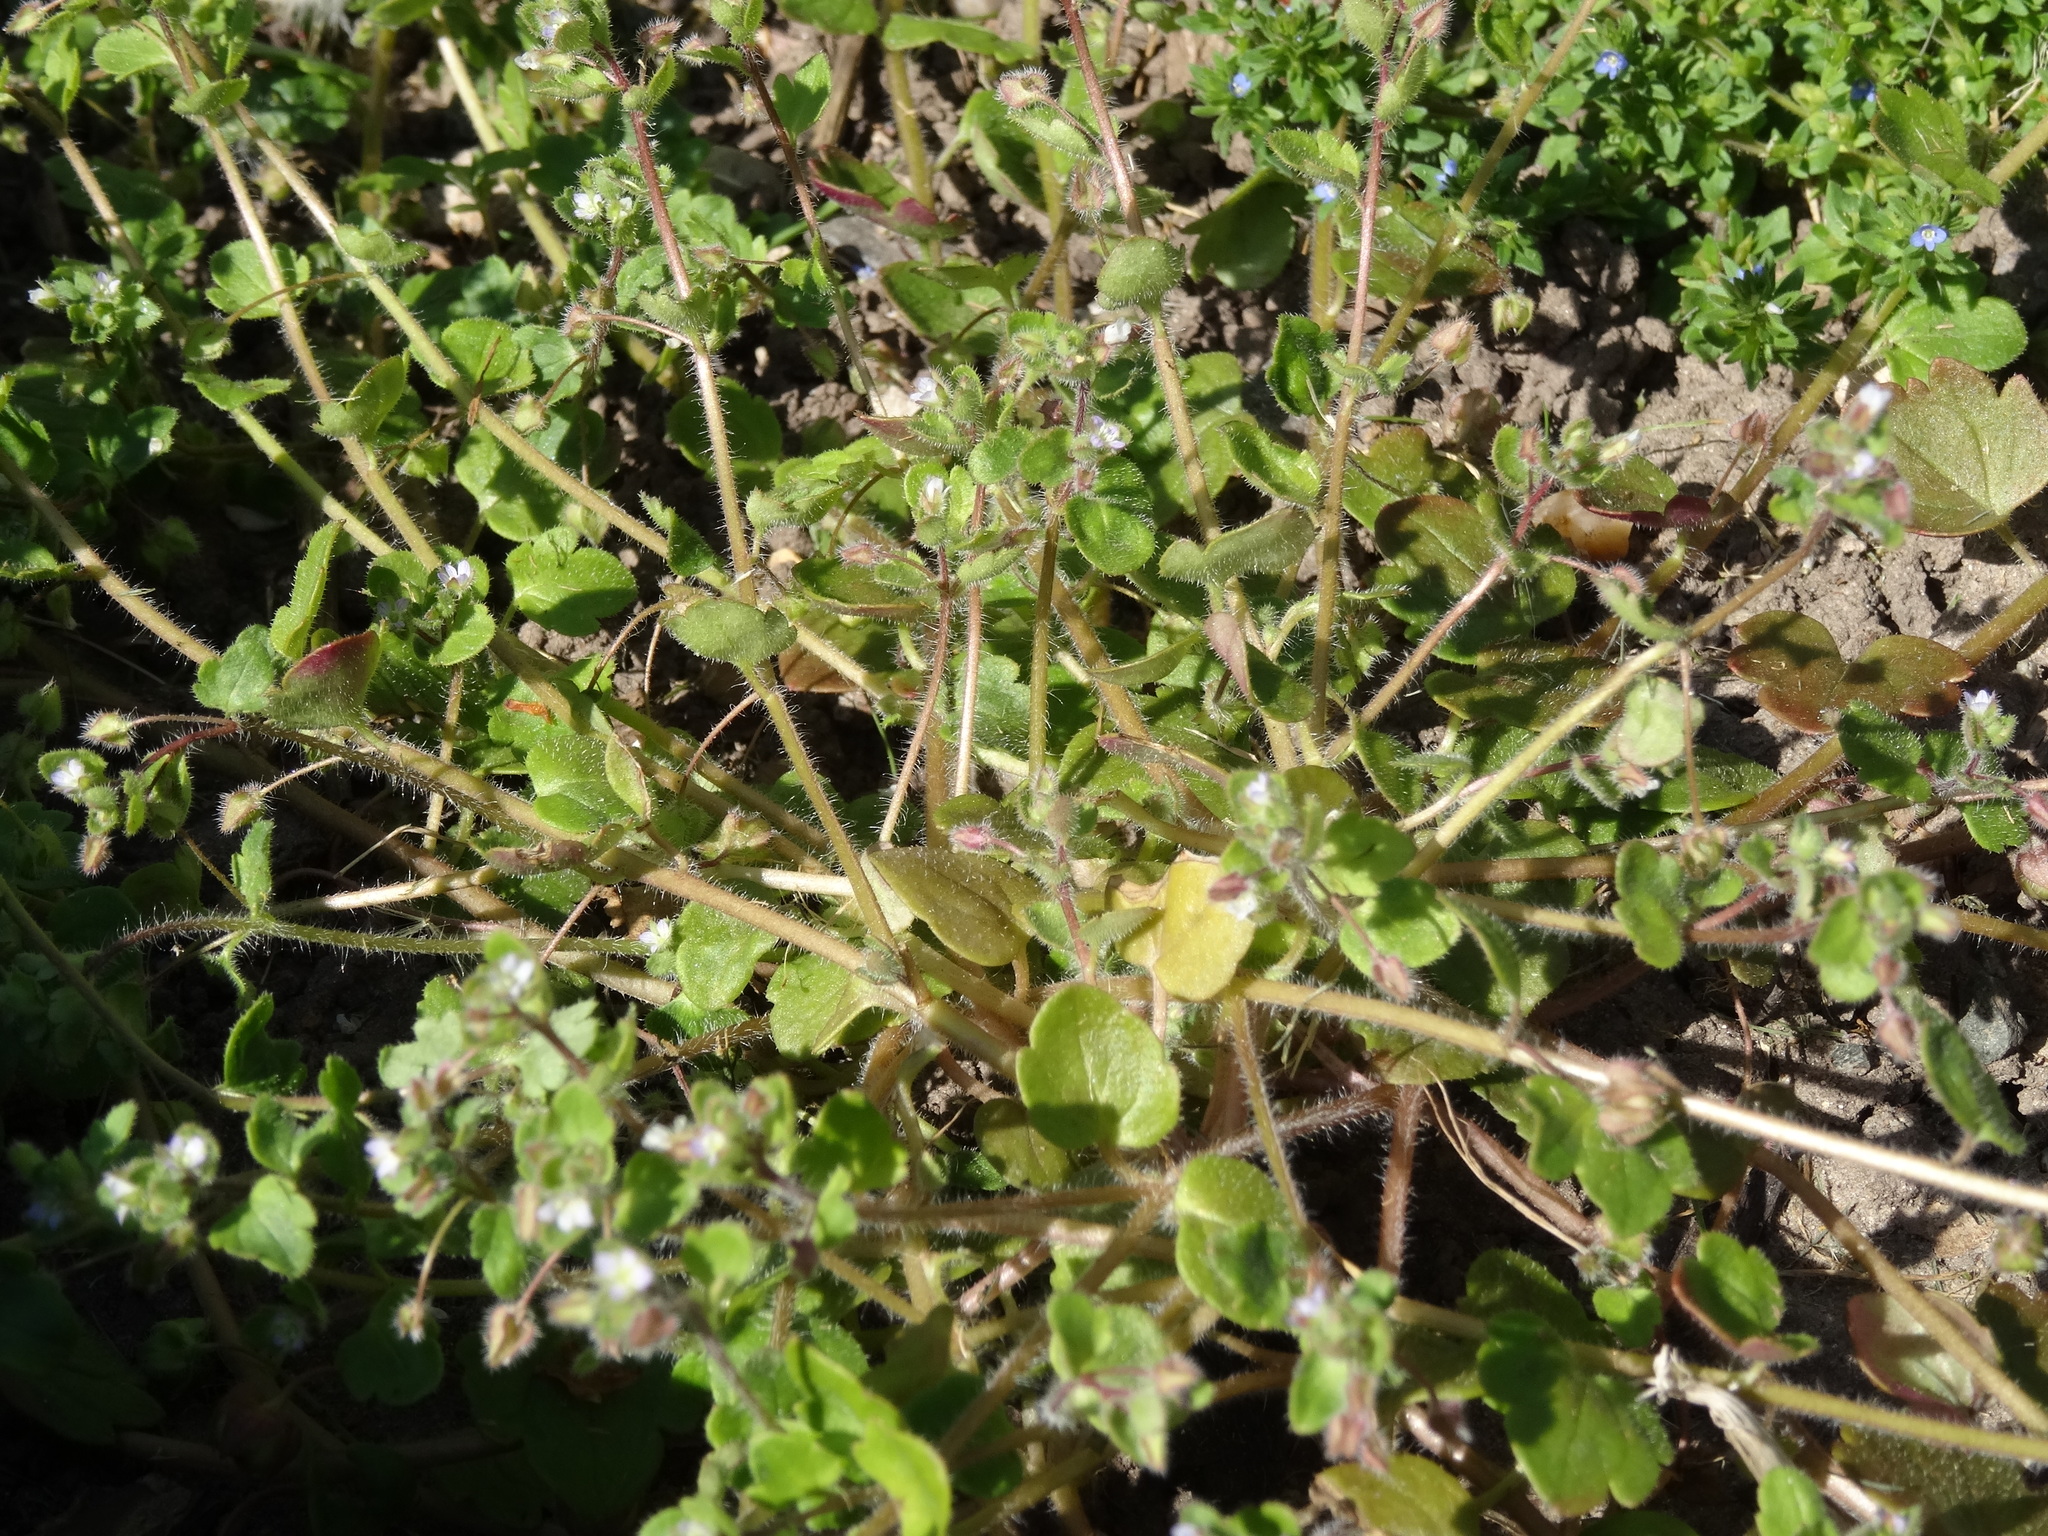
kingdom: Plantae
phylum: Tracheophyta
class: Magnoliopsida
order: Lamiales
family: Plantaginaceae
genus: Veronica
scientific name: Veronica hederifolia
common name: Ivy-leaved speedwell
